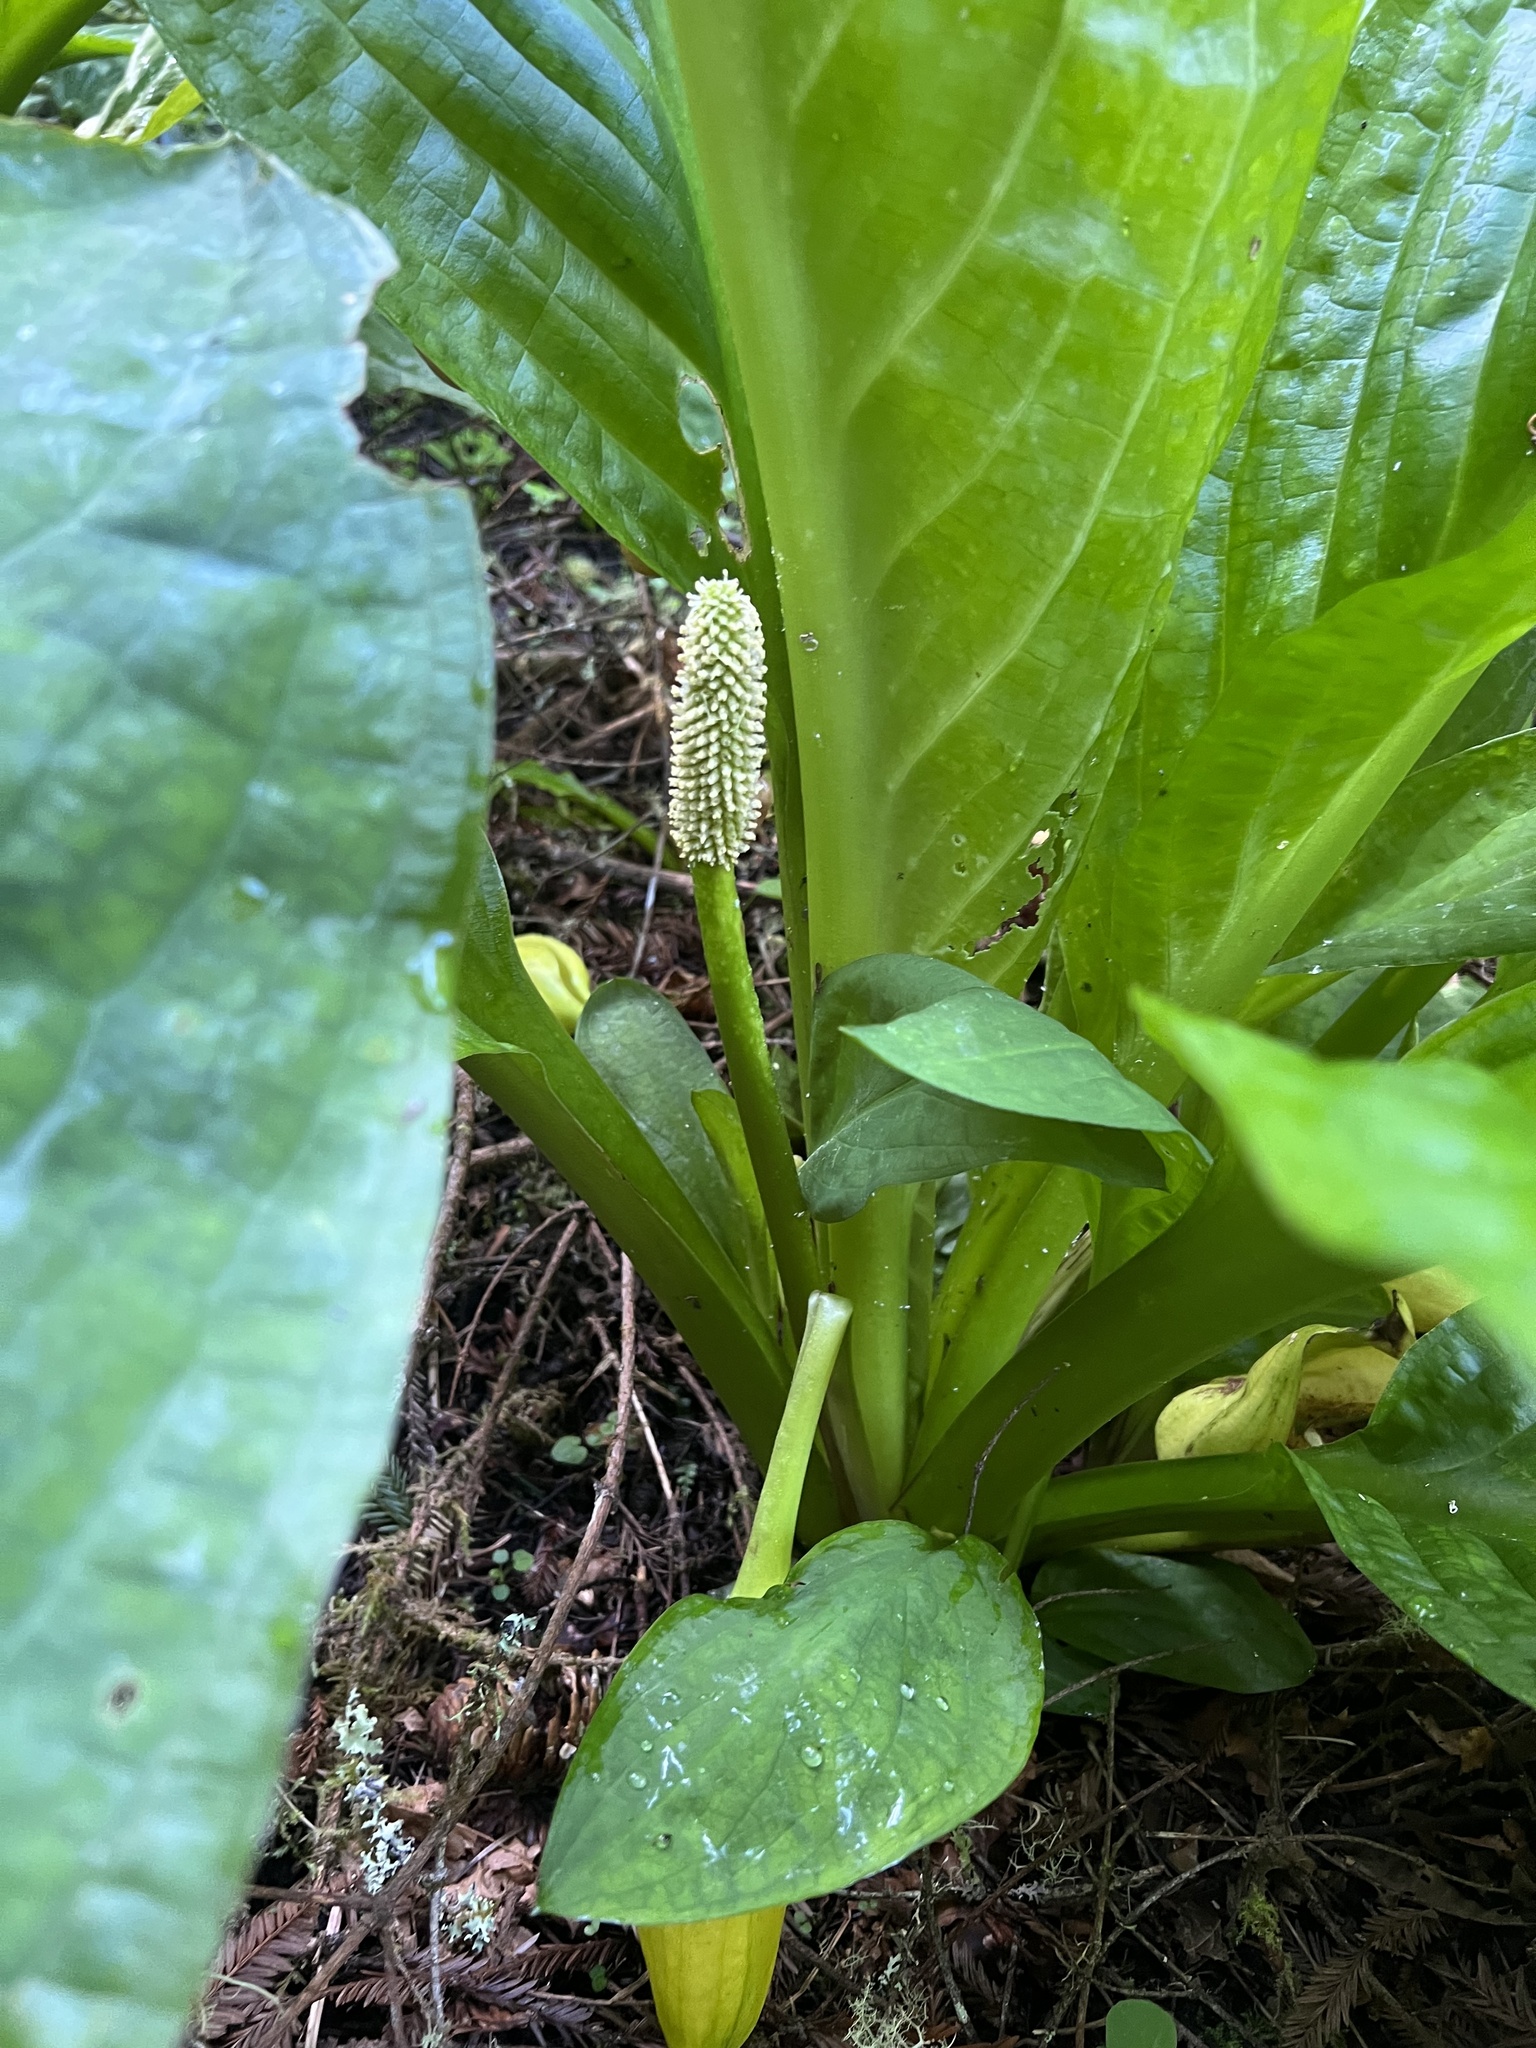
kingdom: Plantae
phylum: Tracheophyta
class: Liliopsida
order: Alismatales
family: Araceae
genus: Lysichiton
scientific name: Lysichiton americanus
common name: American skunk cabbage
